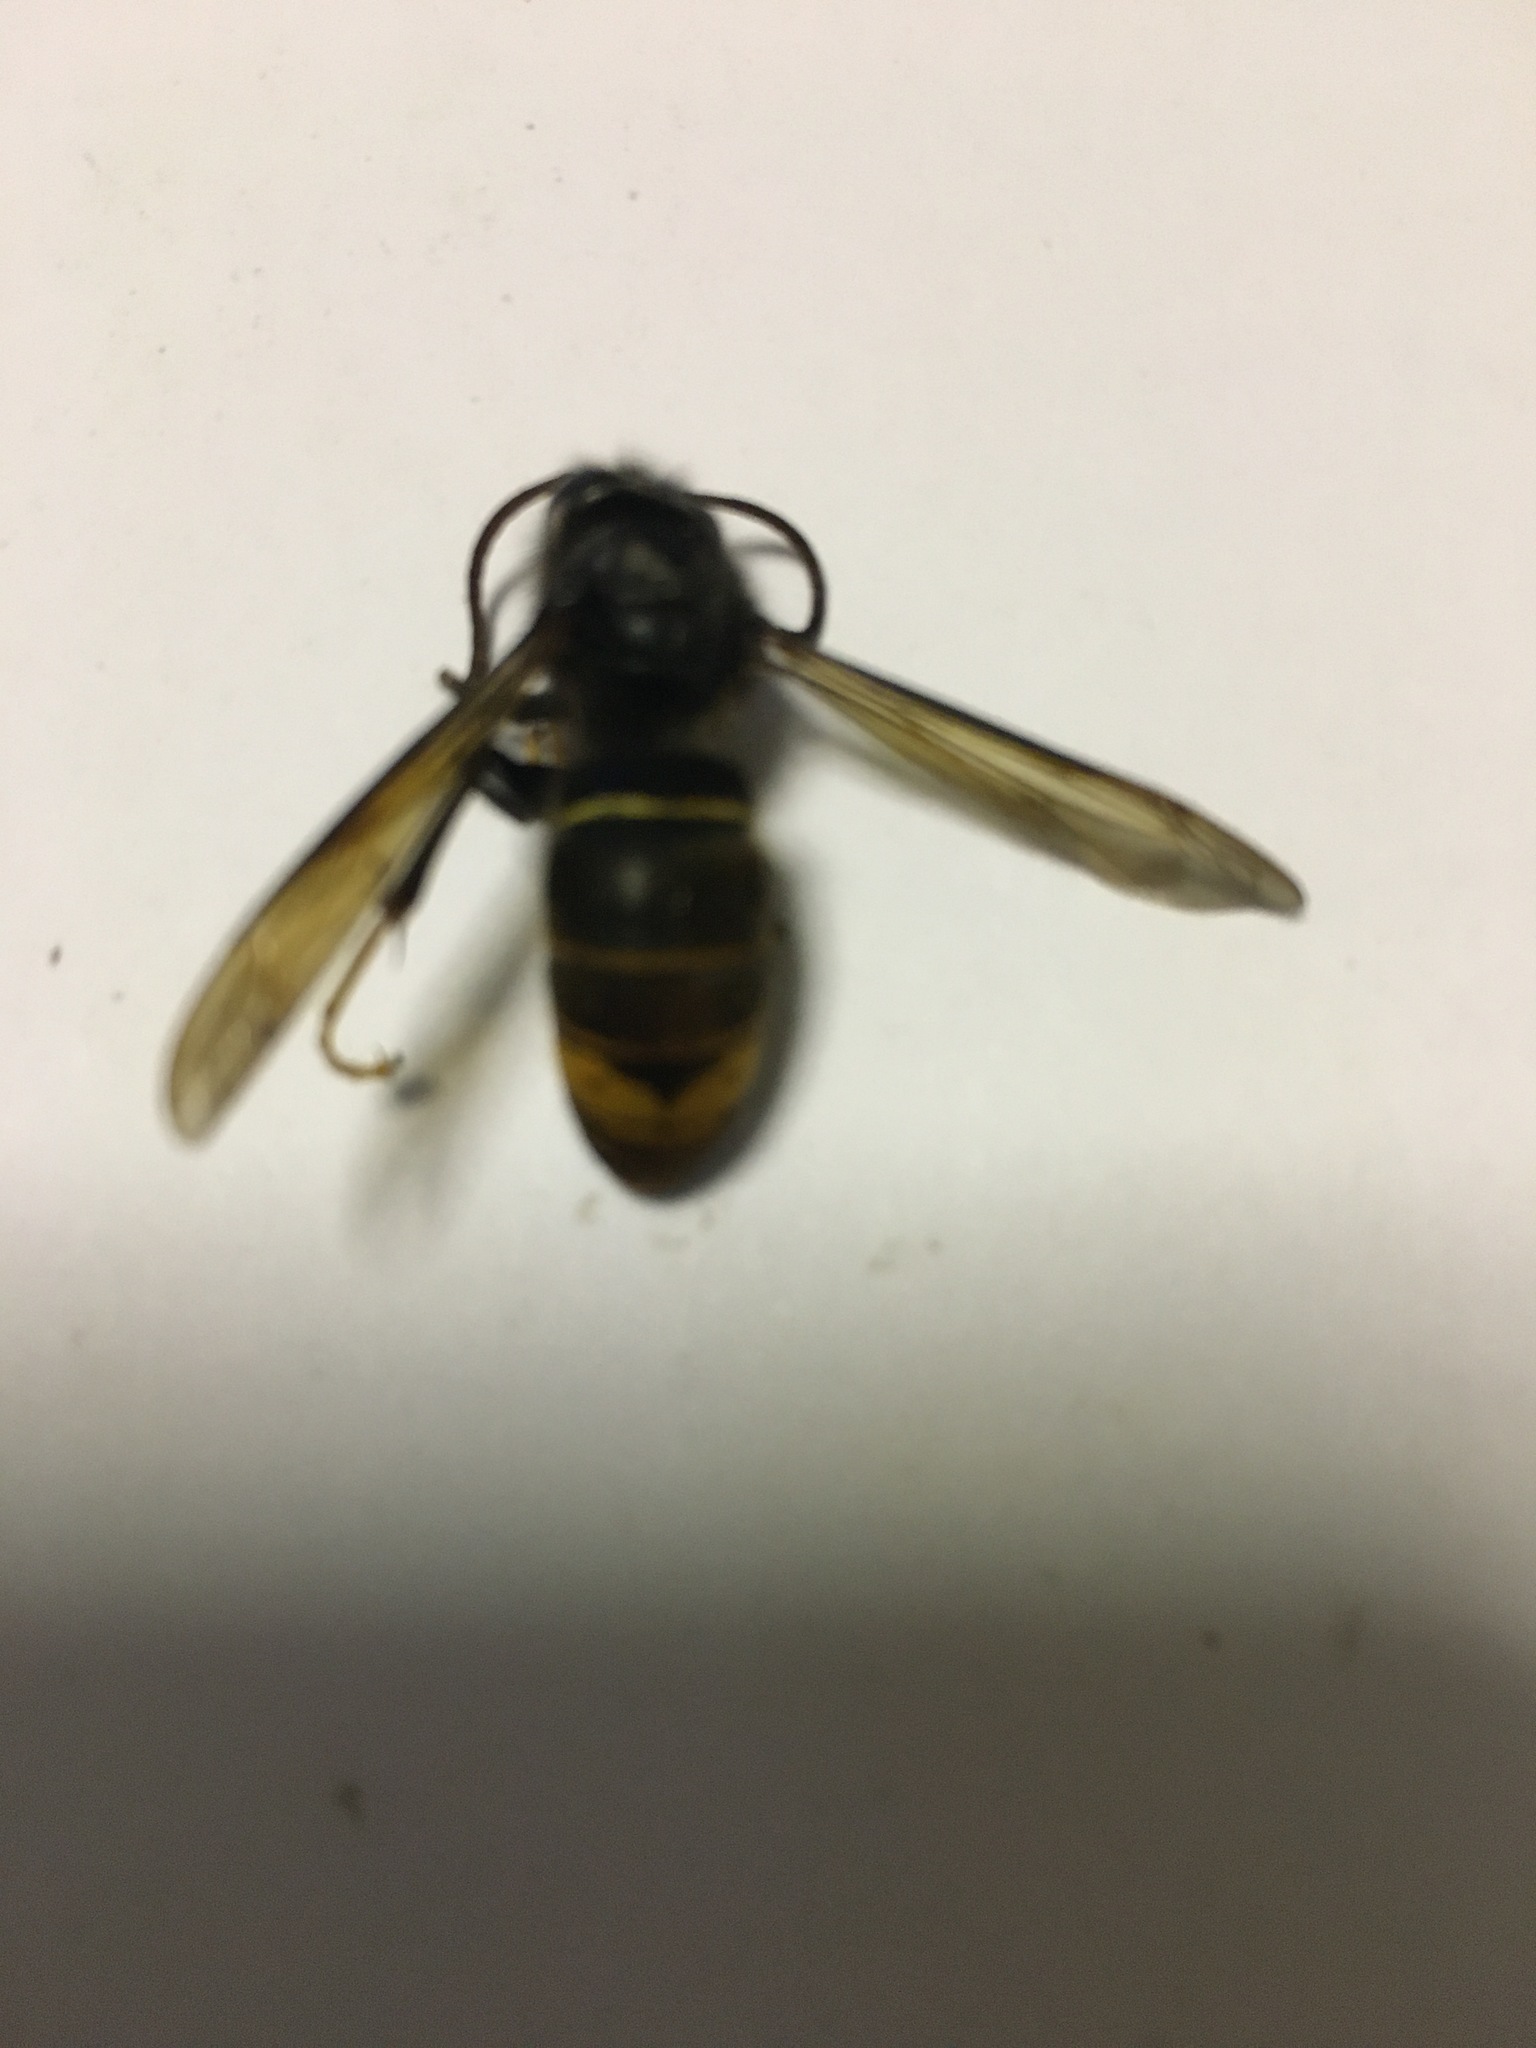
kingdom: Animalia
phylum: Arthropoda
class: Insecta
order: Hymenoptera
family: Vespidae
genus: Vespa
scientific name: Vespa velutina
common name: Asian hornet
